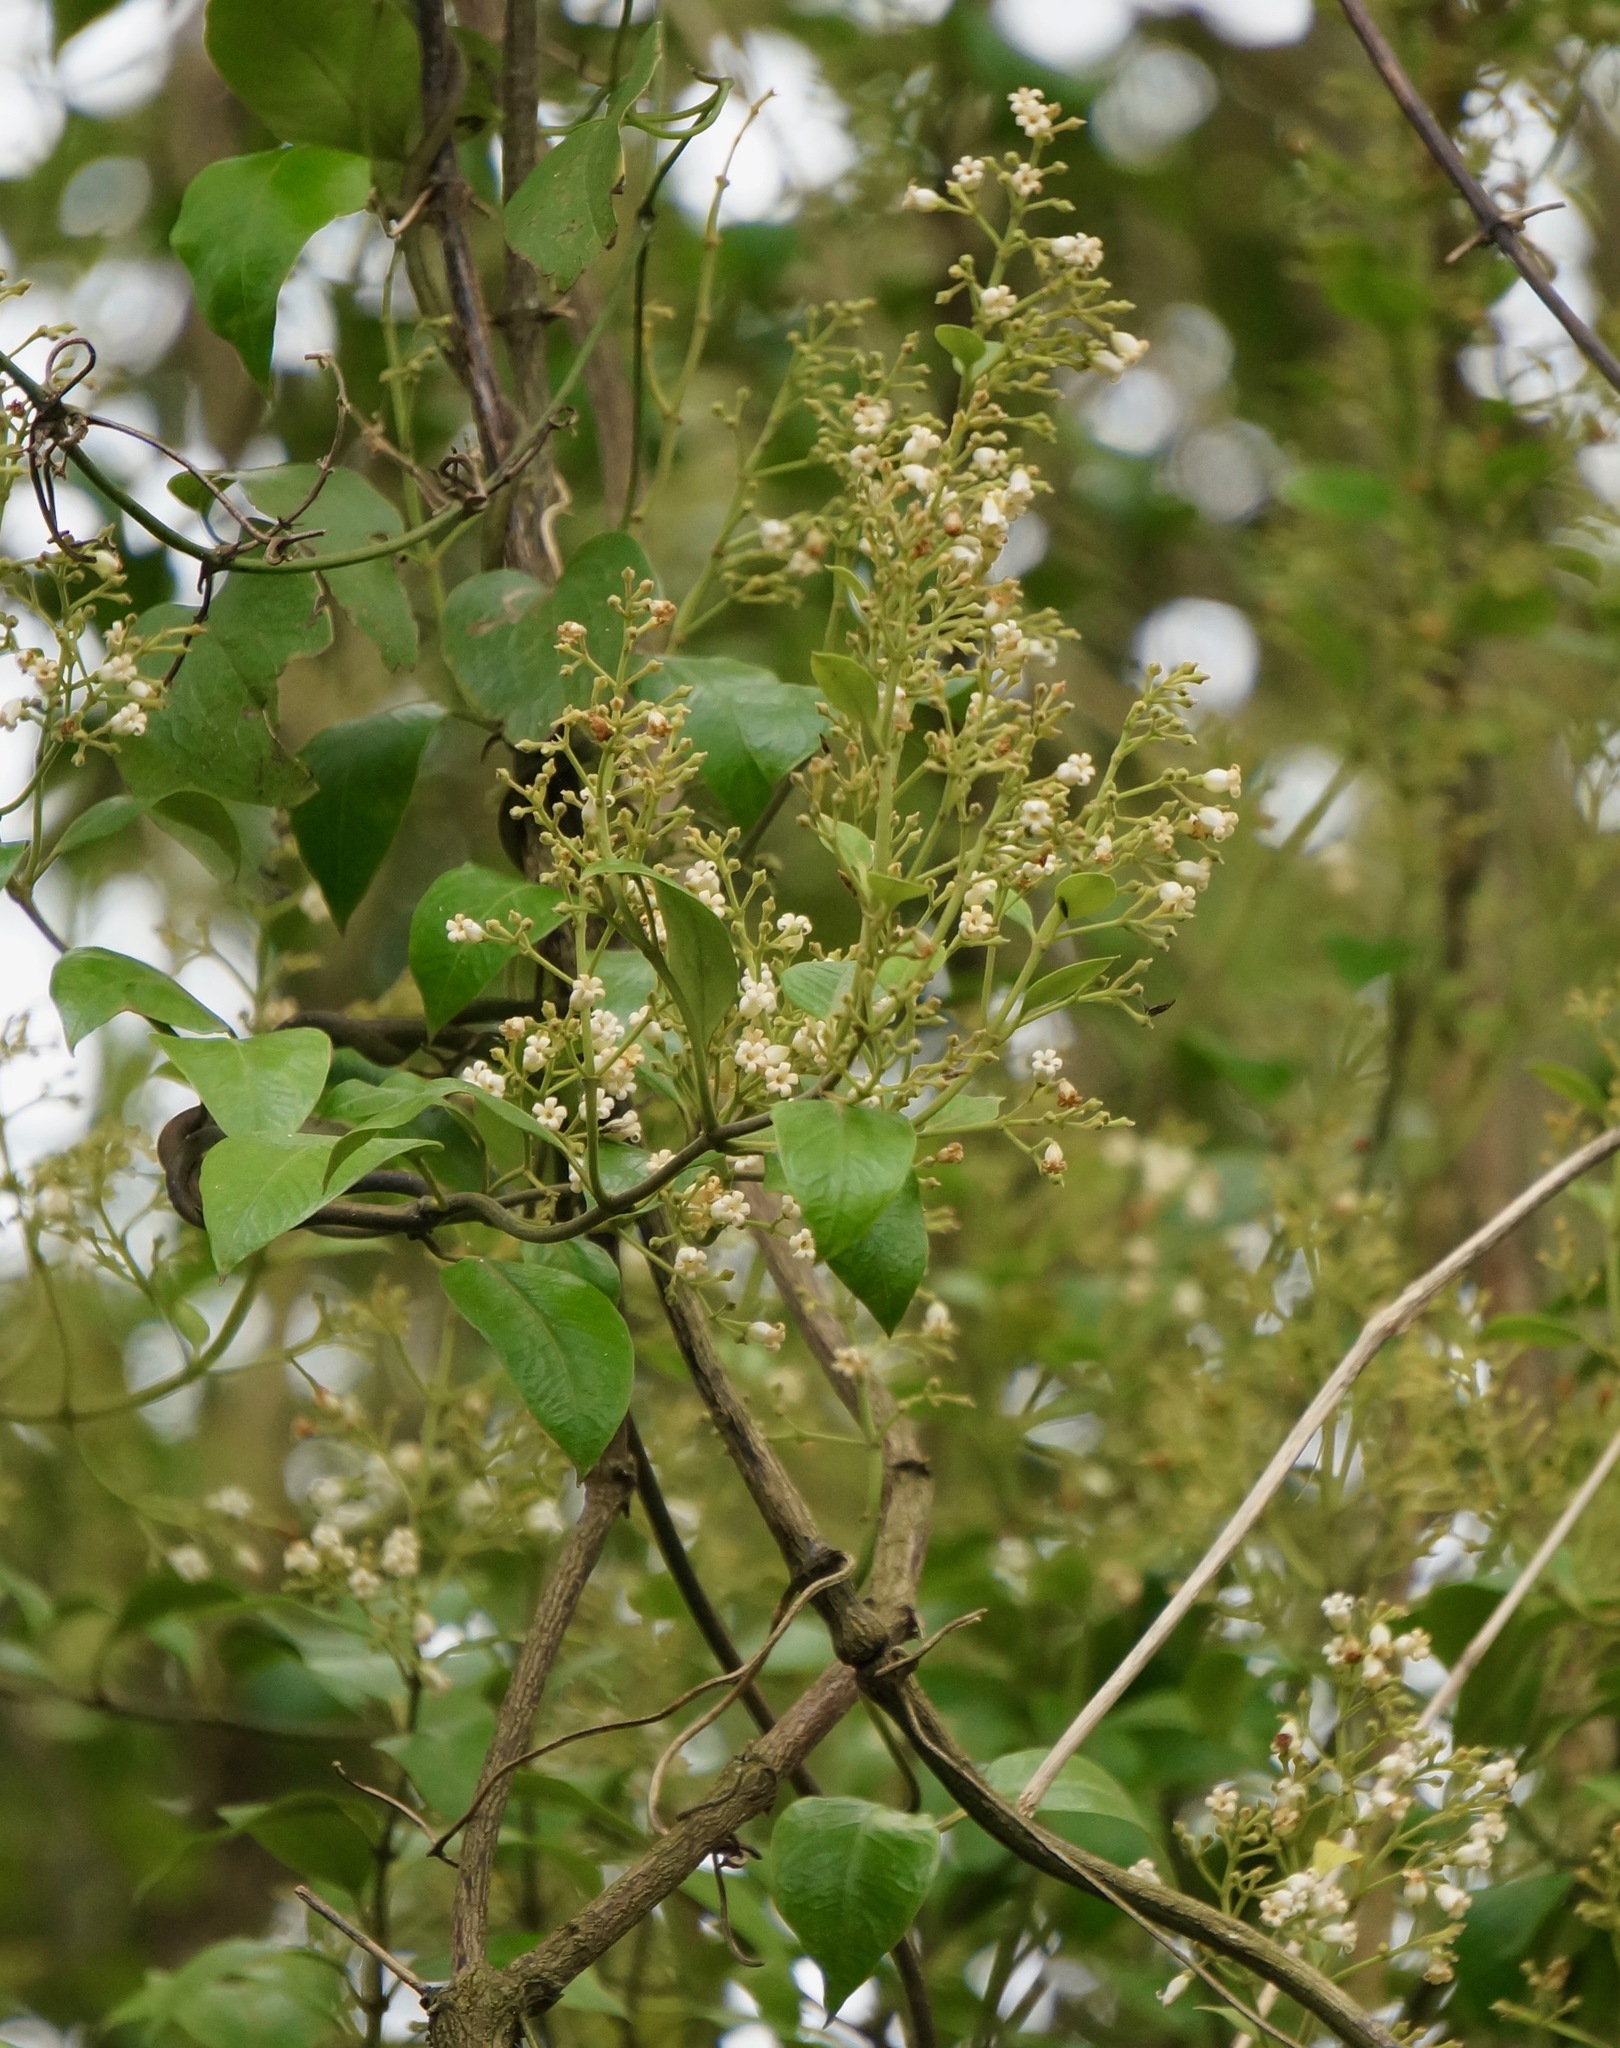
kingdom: Plantae
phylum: Tracheophyta
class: Magnoliopsida
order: Gentianales
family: Apocynaceae
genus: Parsonsia
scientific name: Parsonsia heterophylla
